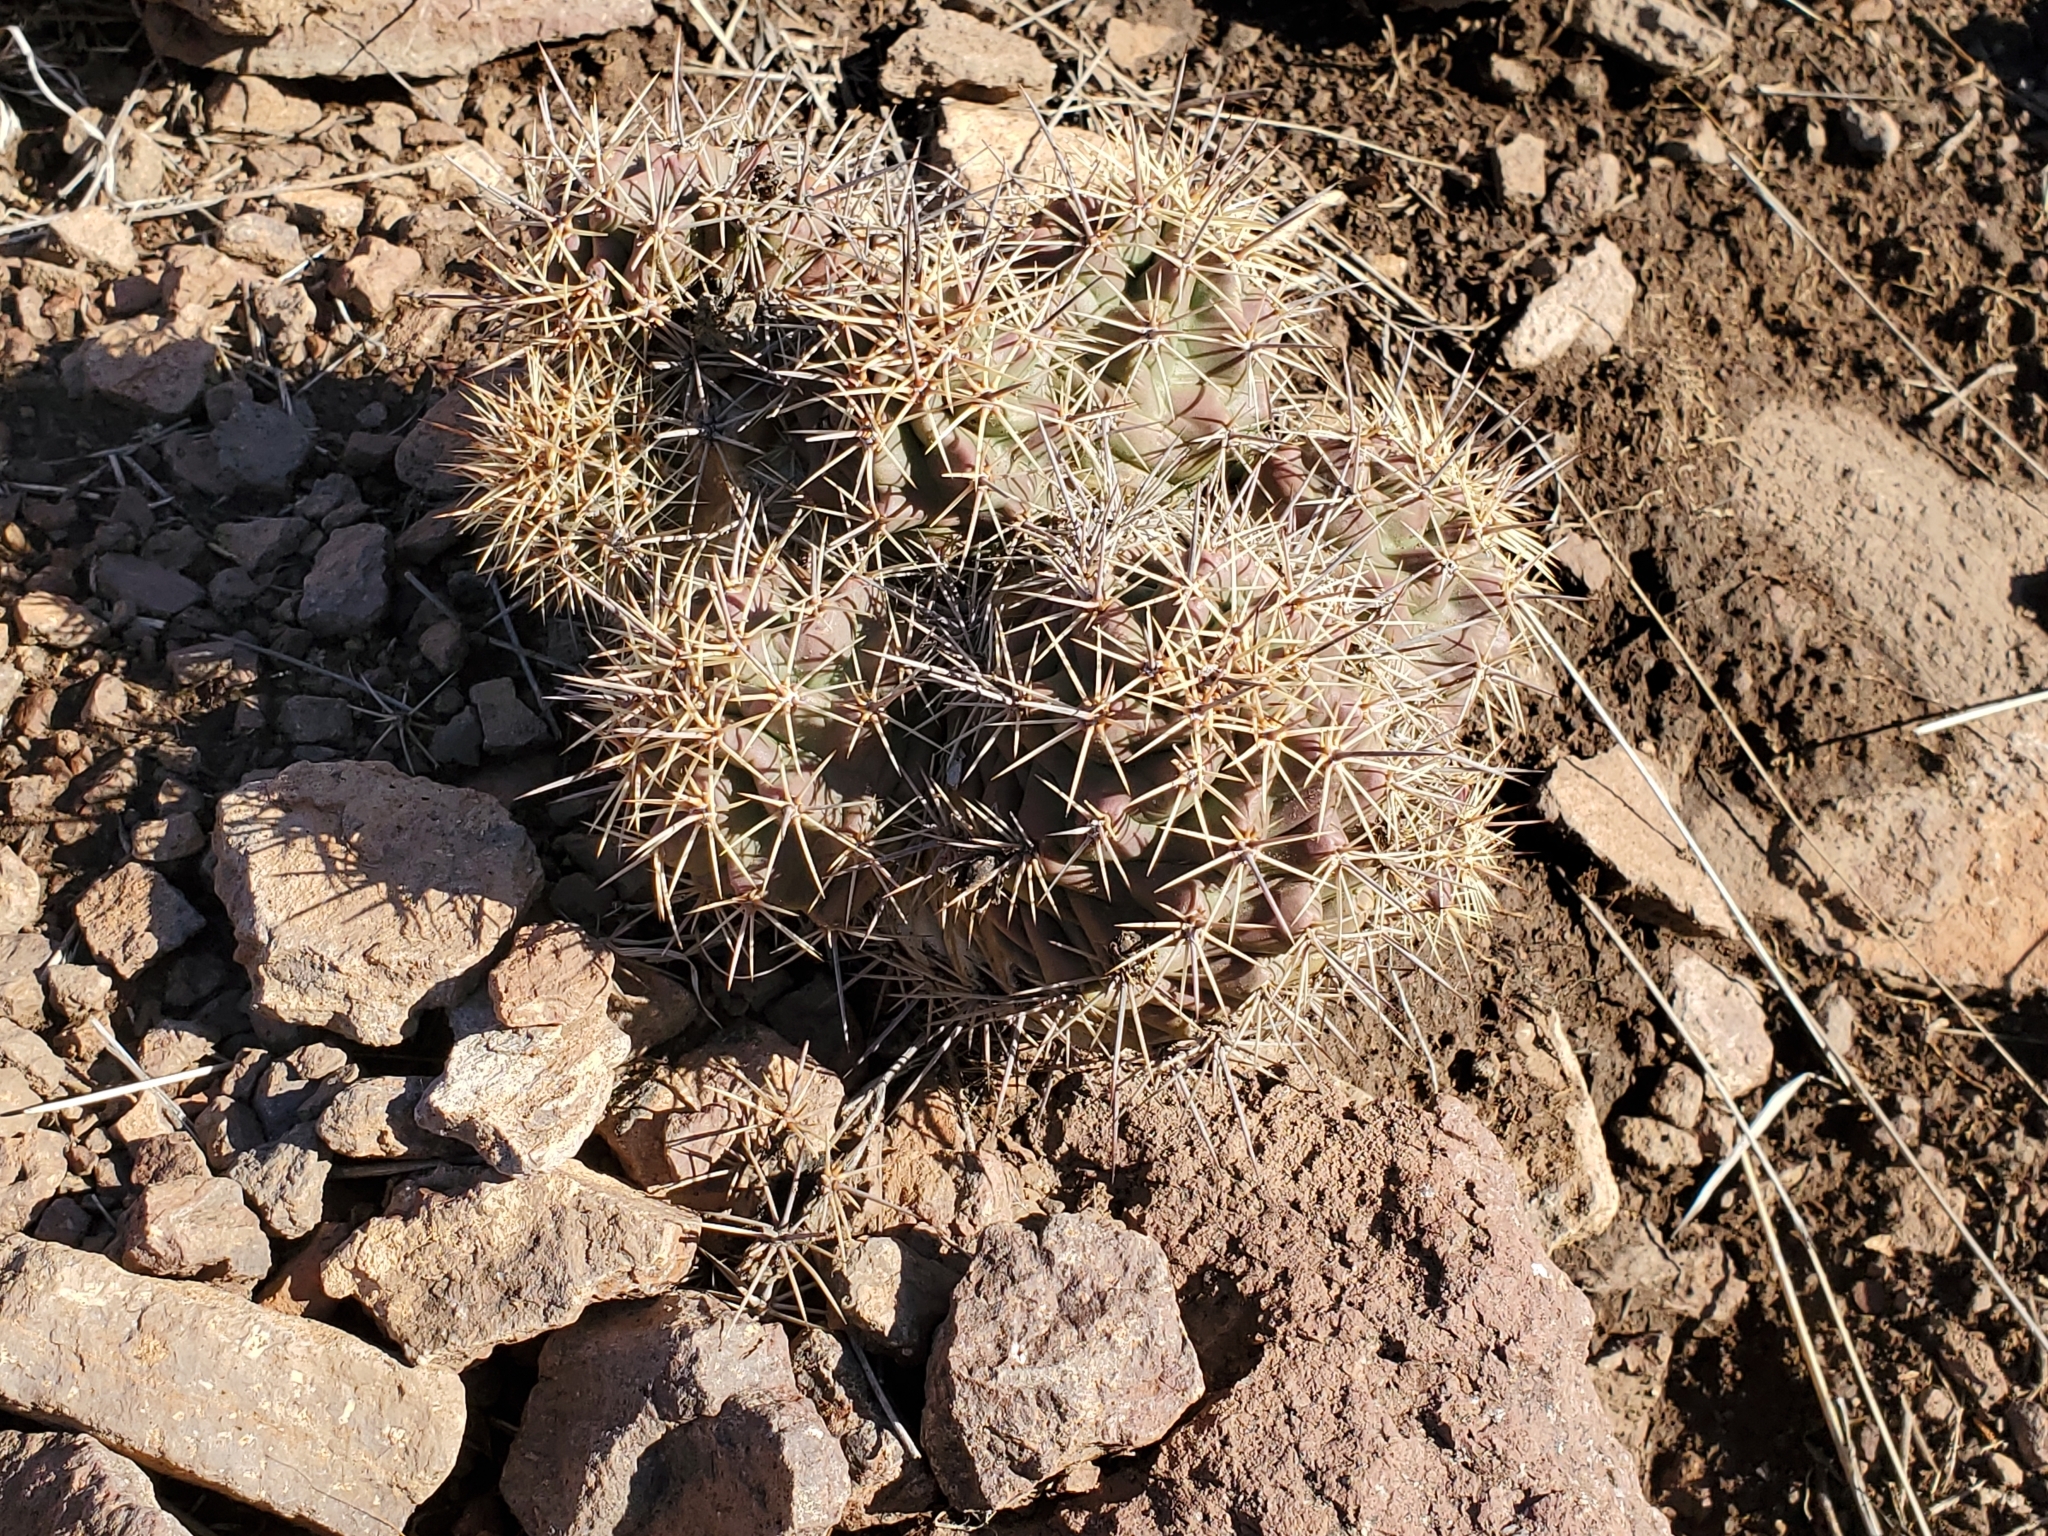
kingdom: Plantae
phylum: Tracheophyta
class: Magnoliopsida
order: Caryophyllales
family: Cactaceae
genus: Echinocereus
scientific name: Echinocereus coccineus
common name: Scarlet hedgehog cactus
